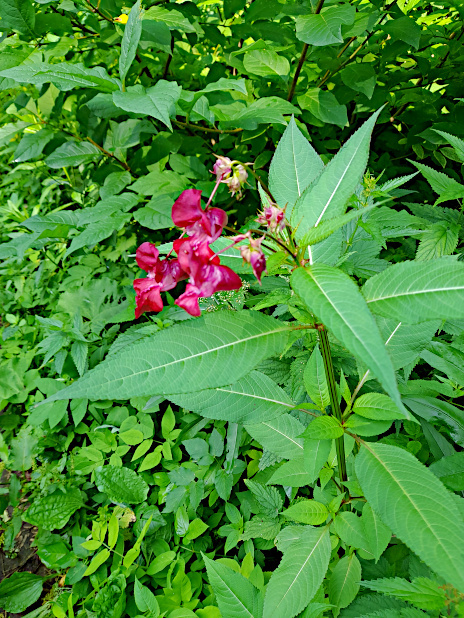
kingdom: Plantae
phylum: Tracheophyta
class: Magnoliopsida
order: Ericales
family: Balsaminaceae
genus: Impatiens
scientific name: Impatiens glandulifera
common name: Himalayan balsam
